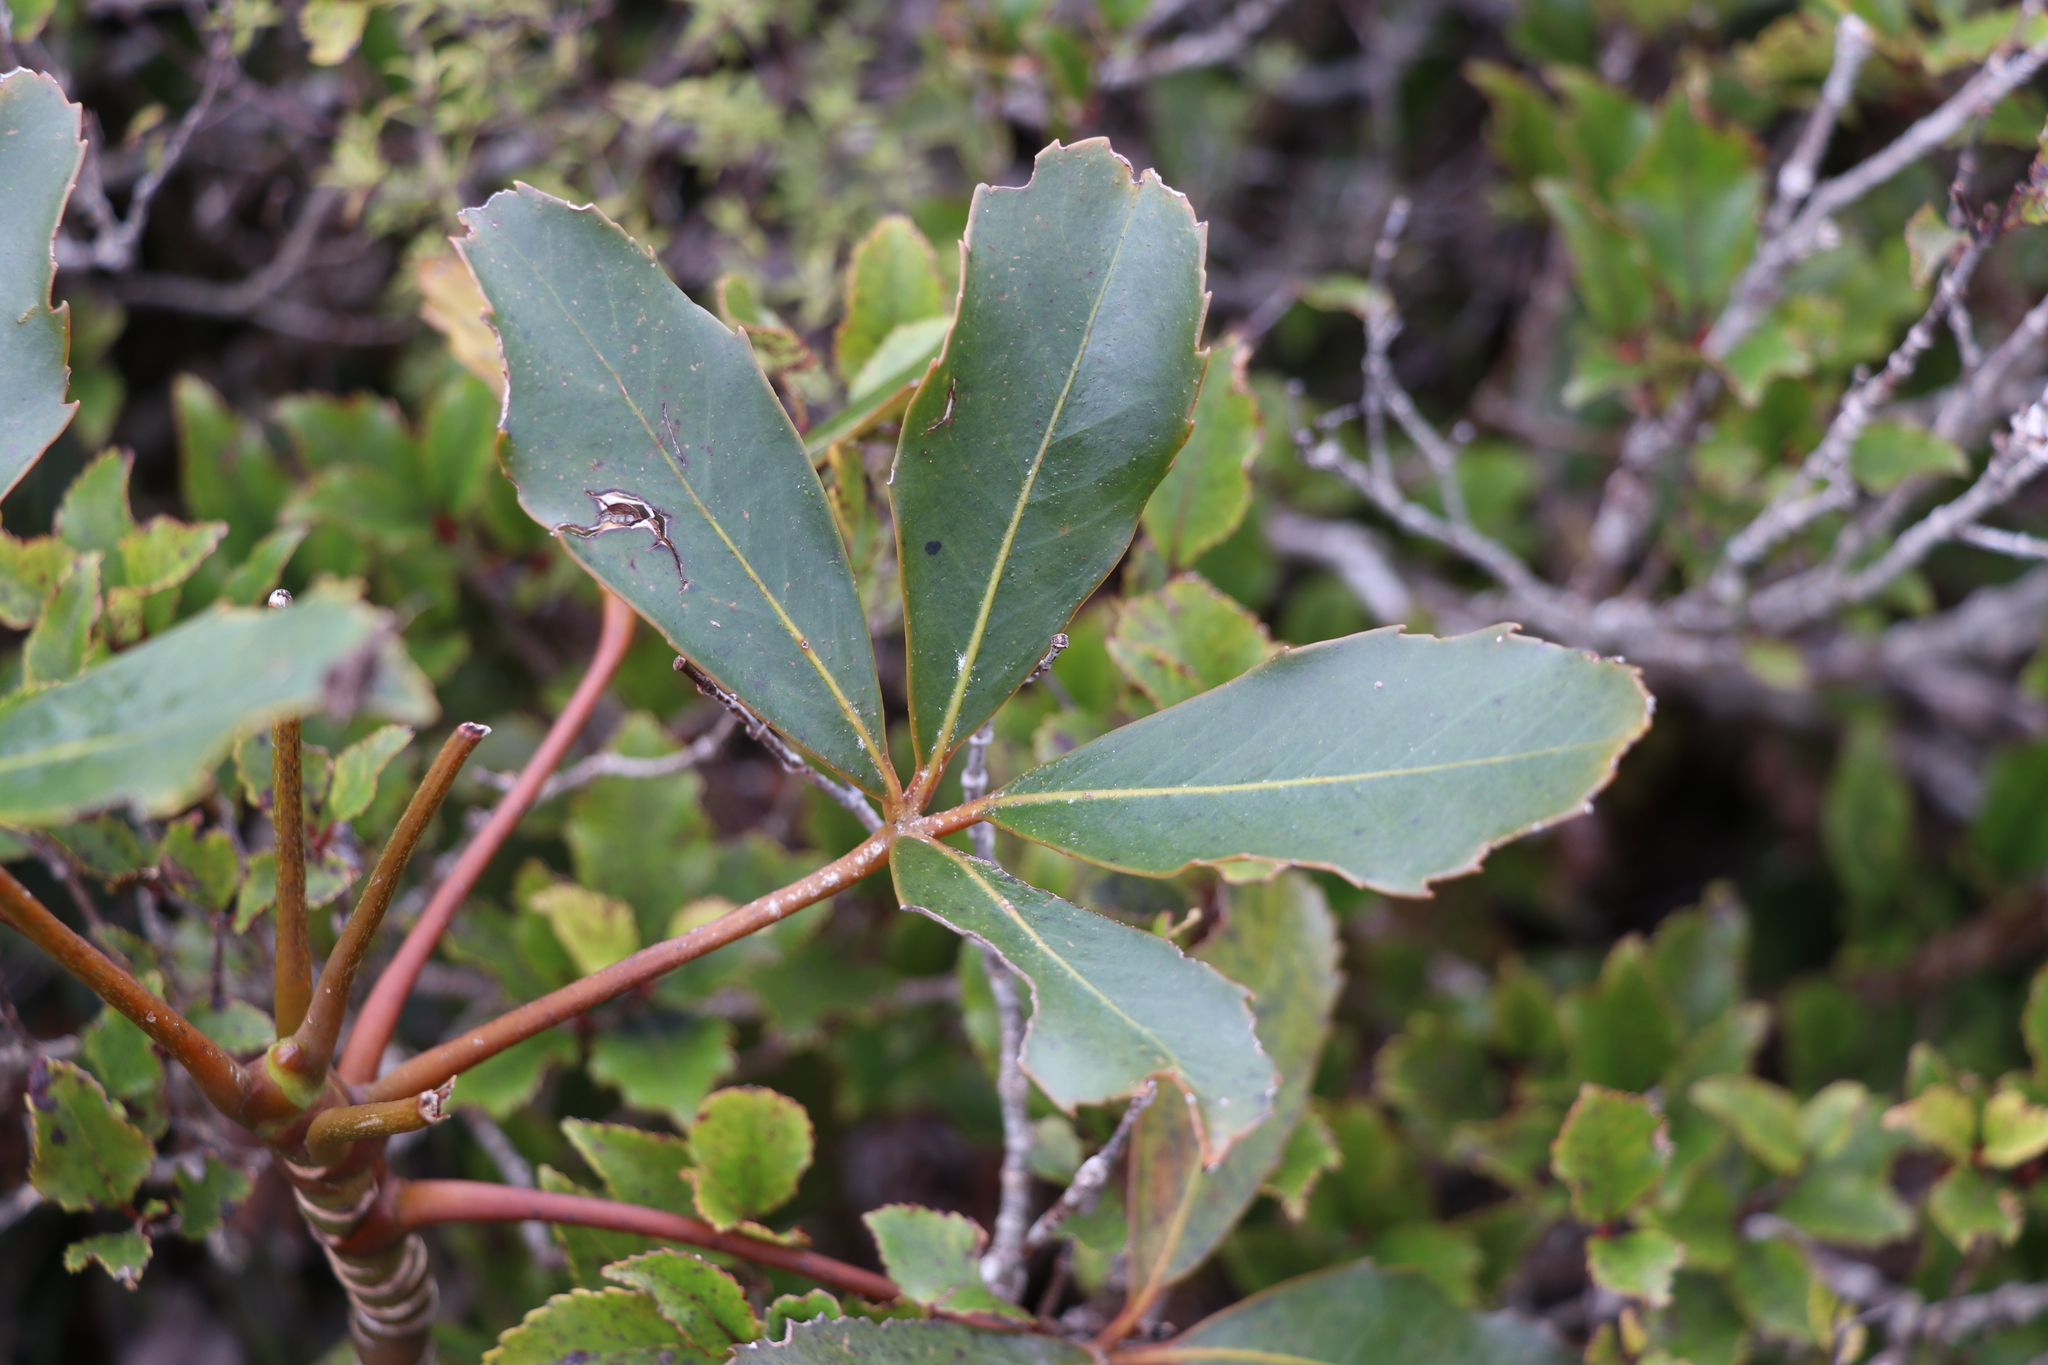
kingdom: Plantae
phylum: Tracheophyta
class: Magnoliopsida
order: Apiales
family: Araliaceae
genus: Neopanax
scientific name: Neopanax colensoi
